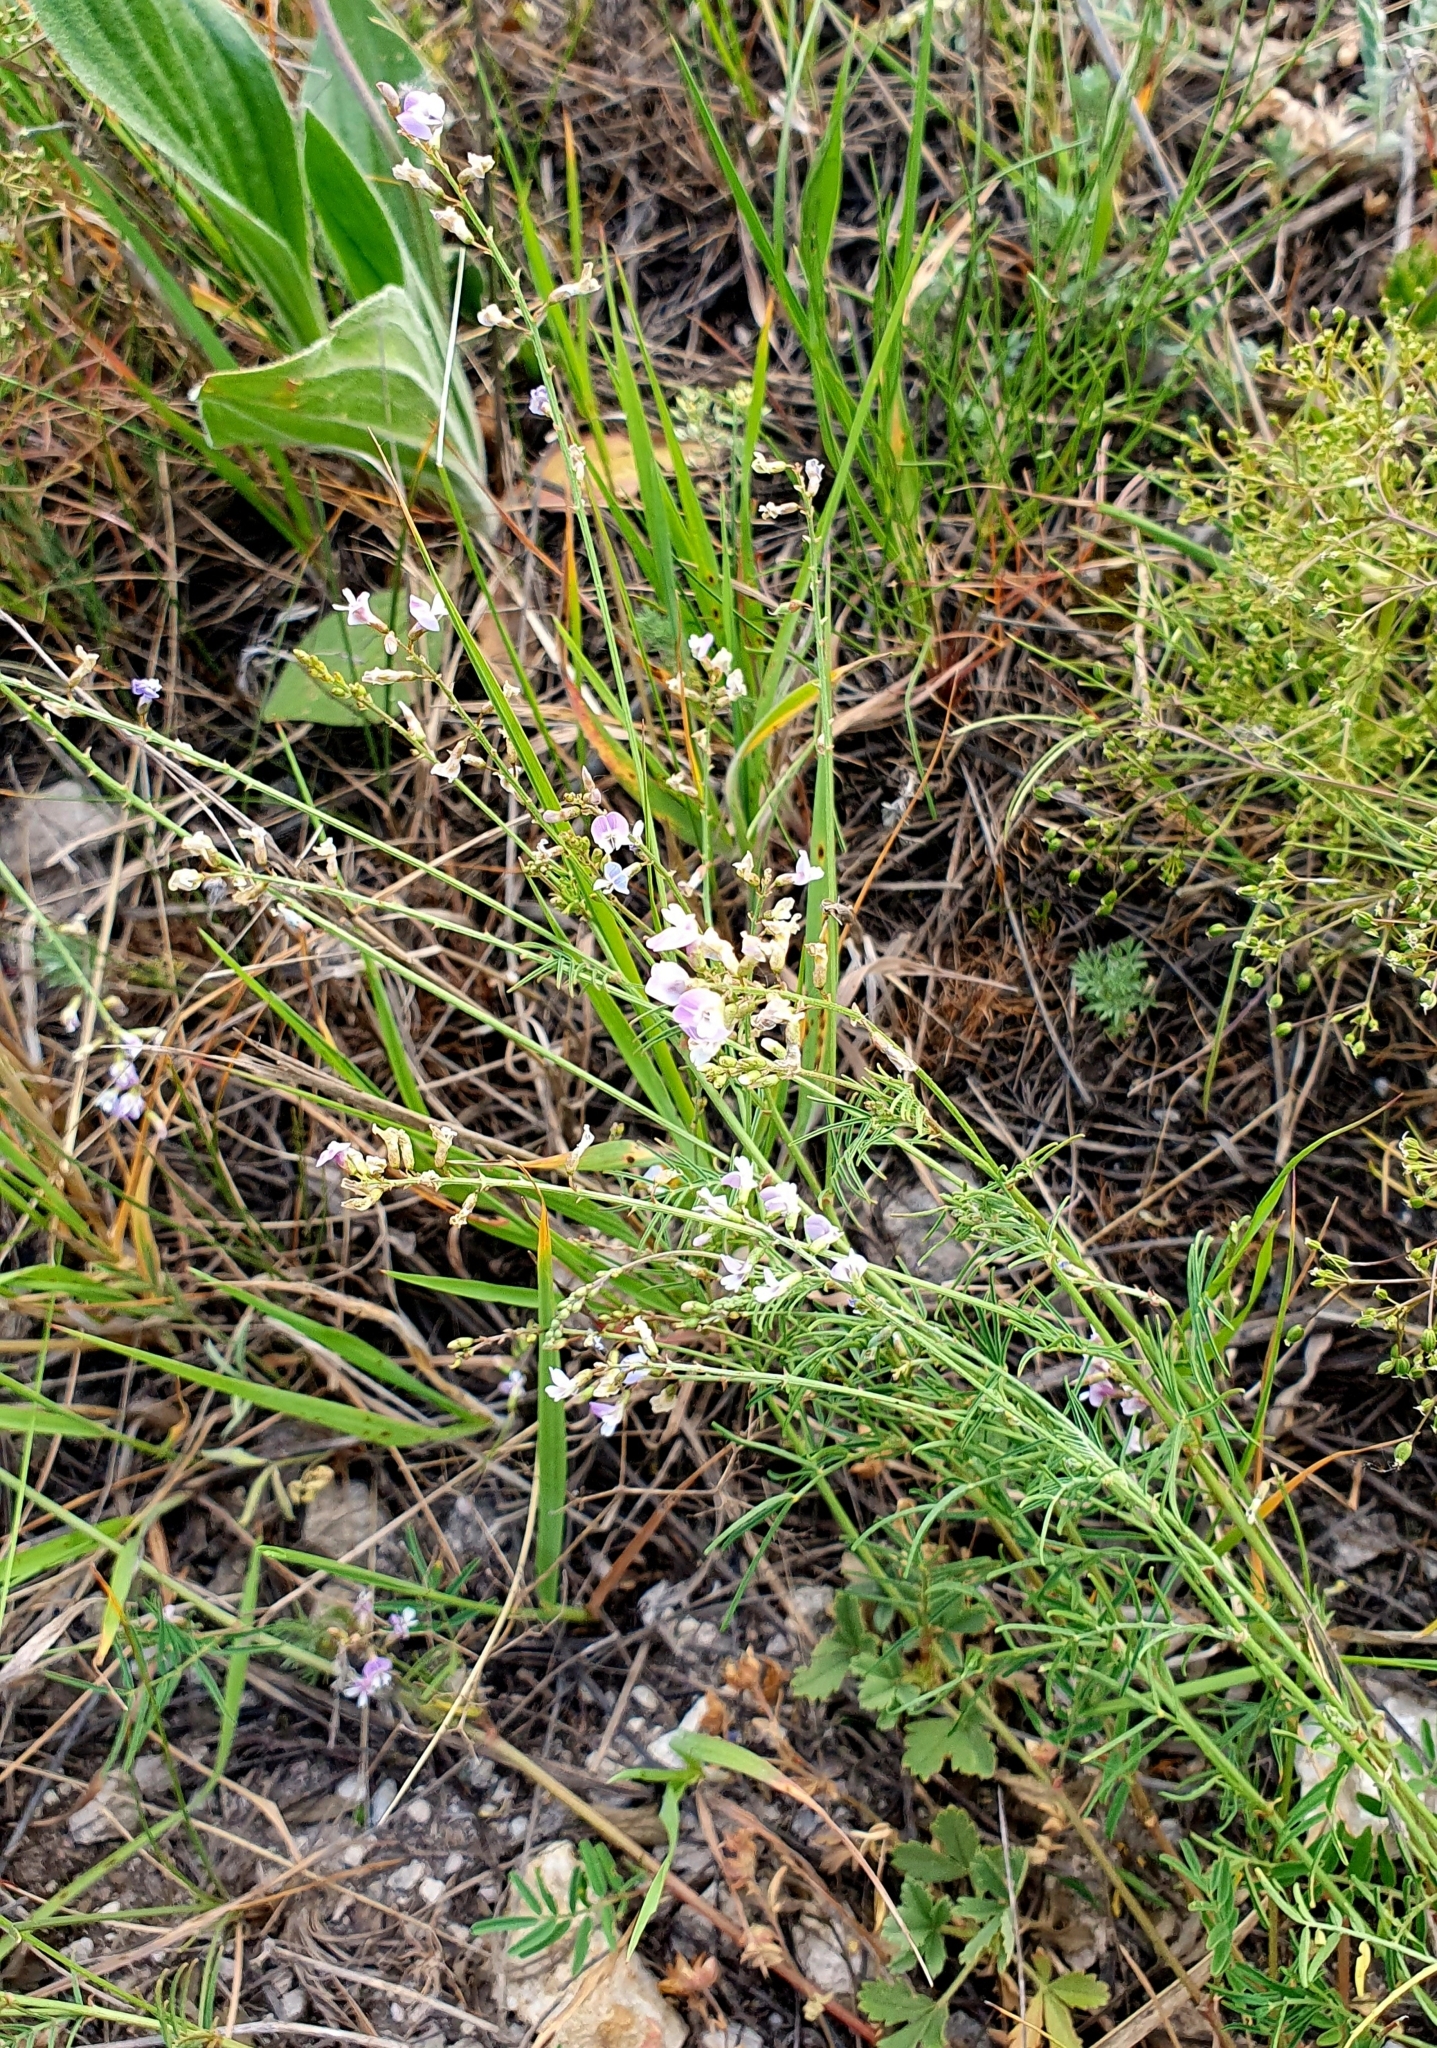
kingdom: Plantae
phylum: Tracheophyta
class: Magnoliopsida
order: Fabales
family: Fabaceae
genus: Astragalus
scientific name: Astragalus austriacus
